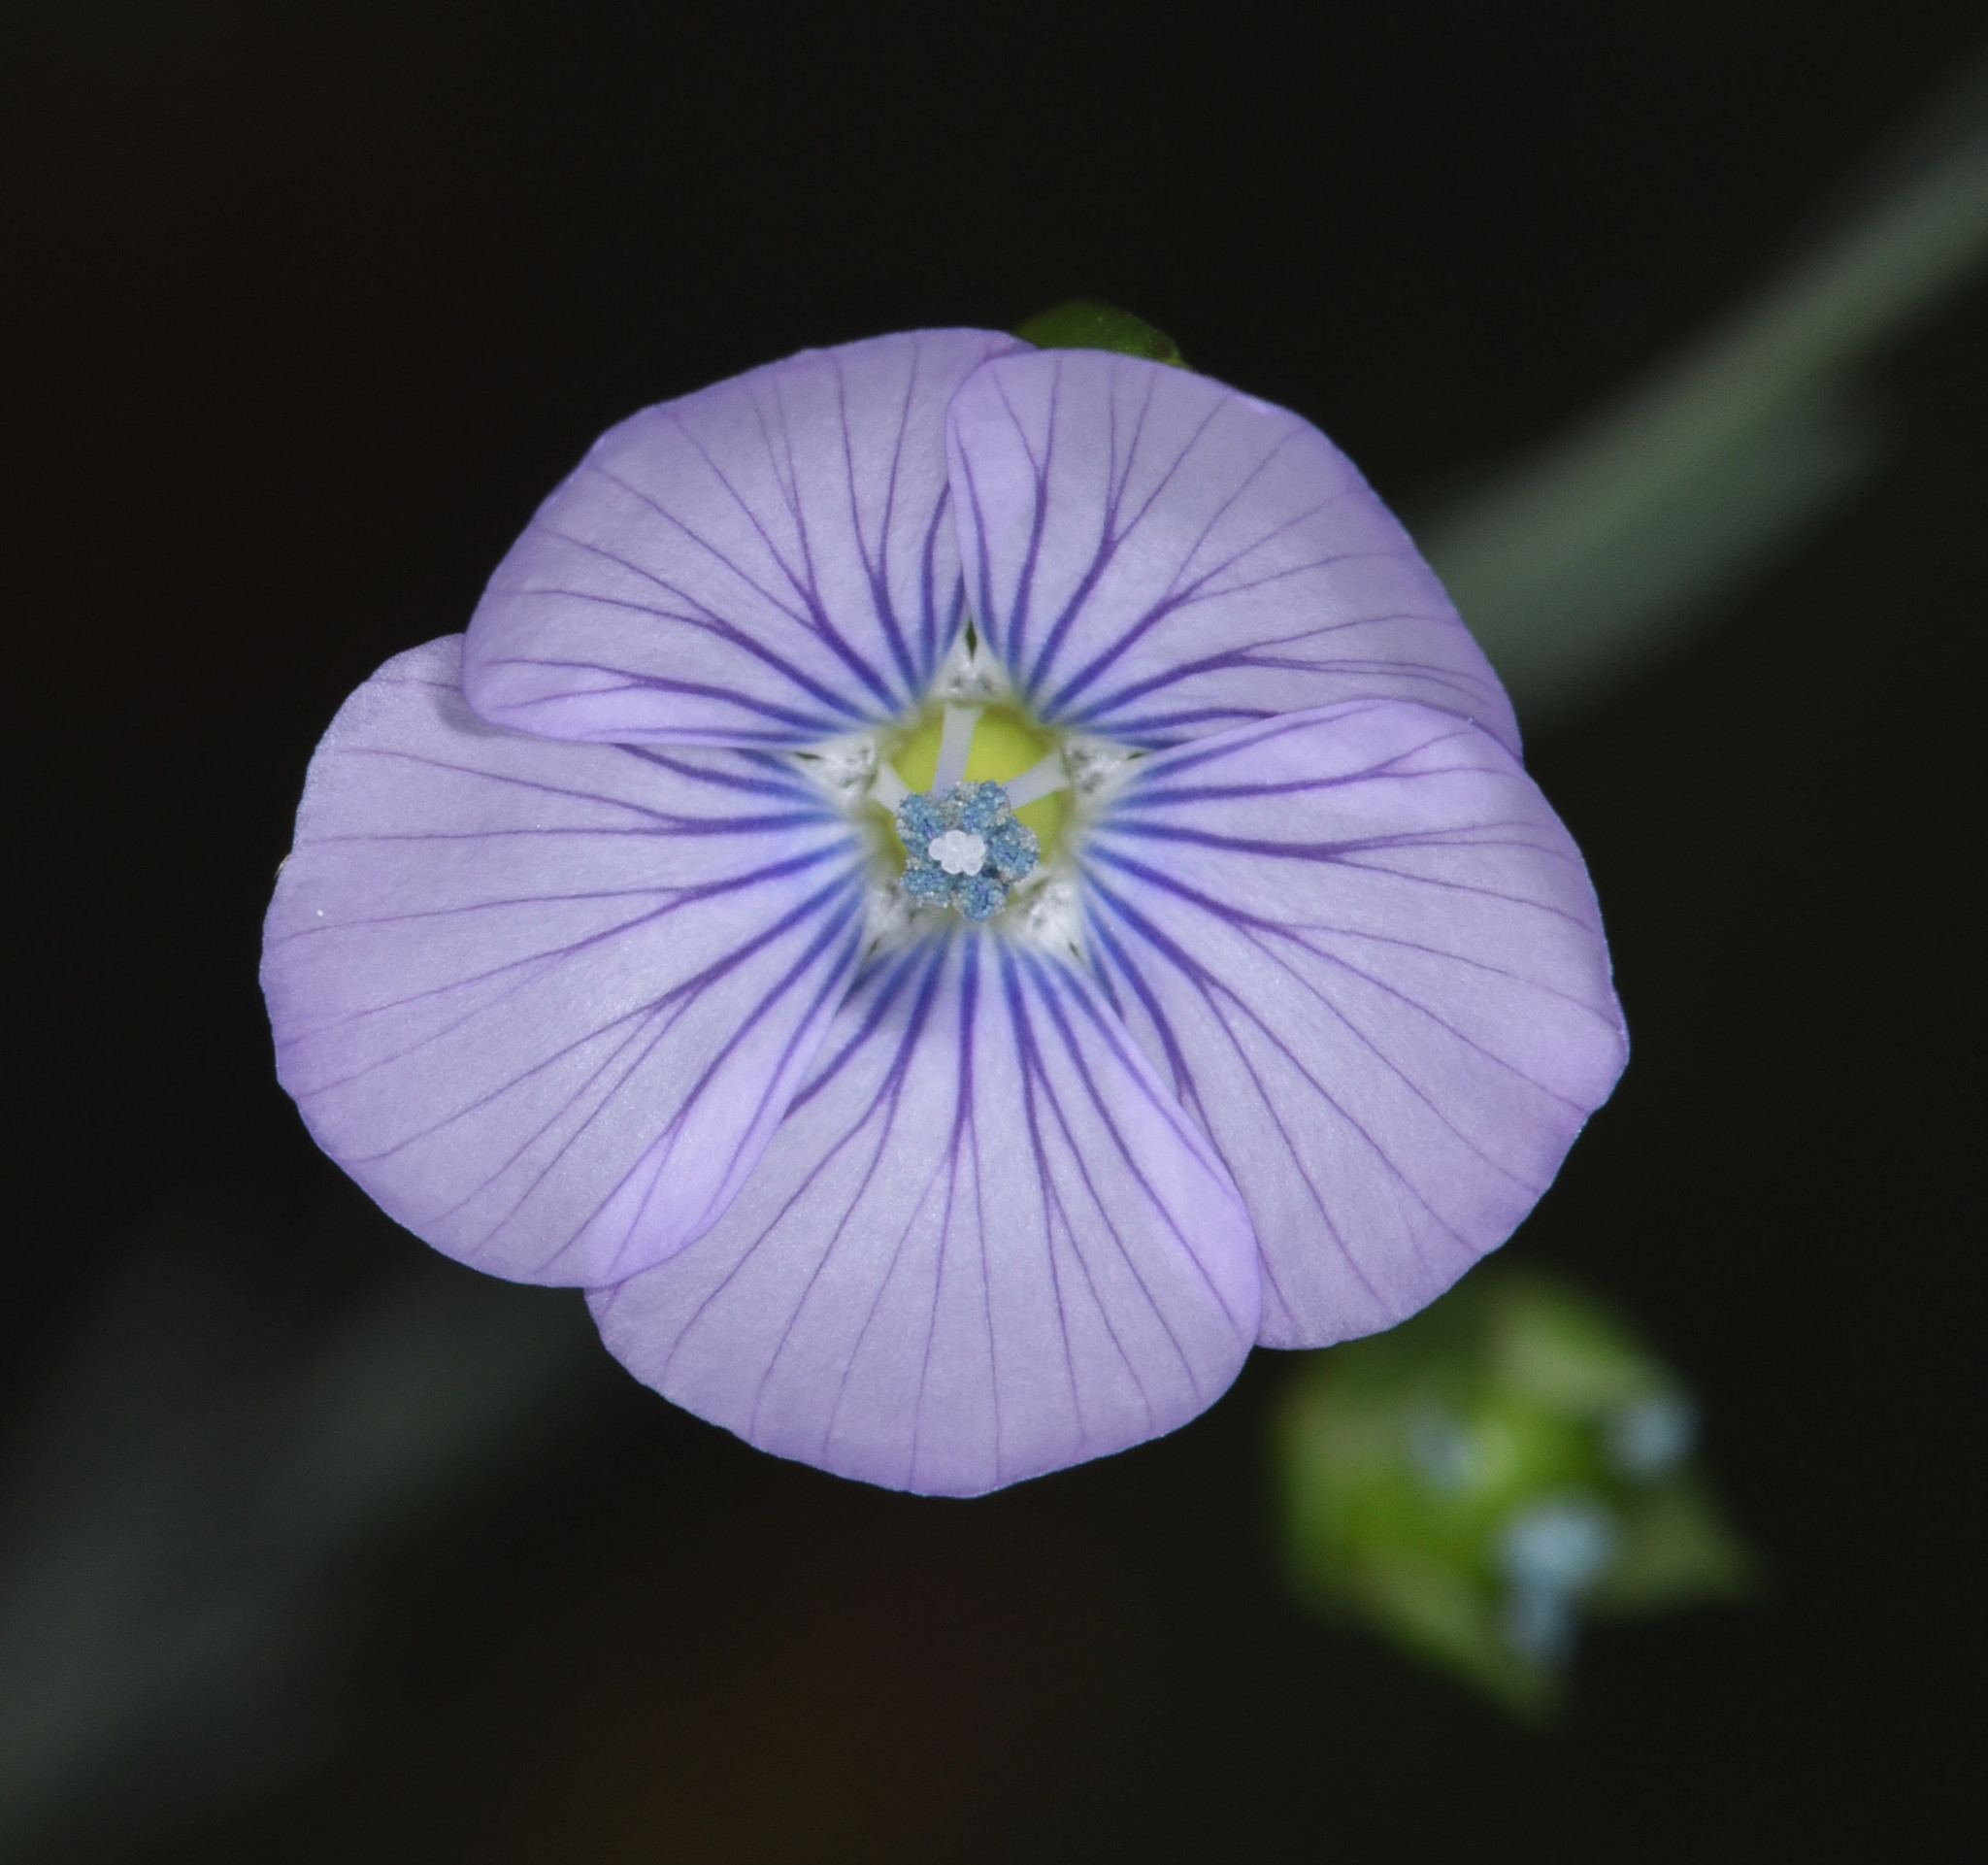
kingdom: Plantae
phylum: Tracheophyta
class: Magnoliopsida
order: Malpighiales
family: Linaceae
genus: Linum
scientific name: Linum bienne
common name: Pale flax
